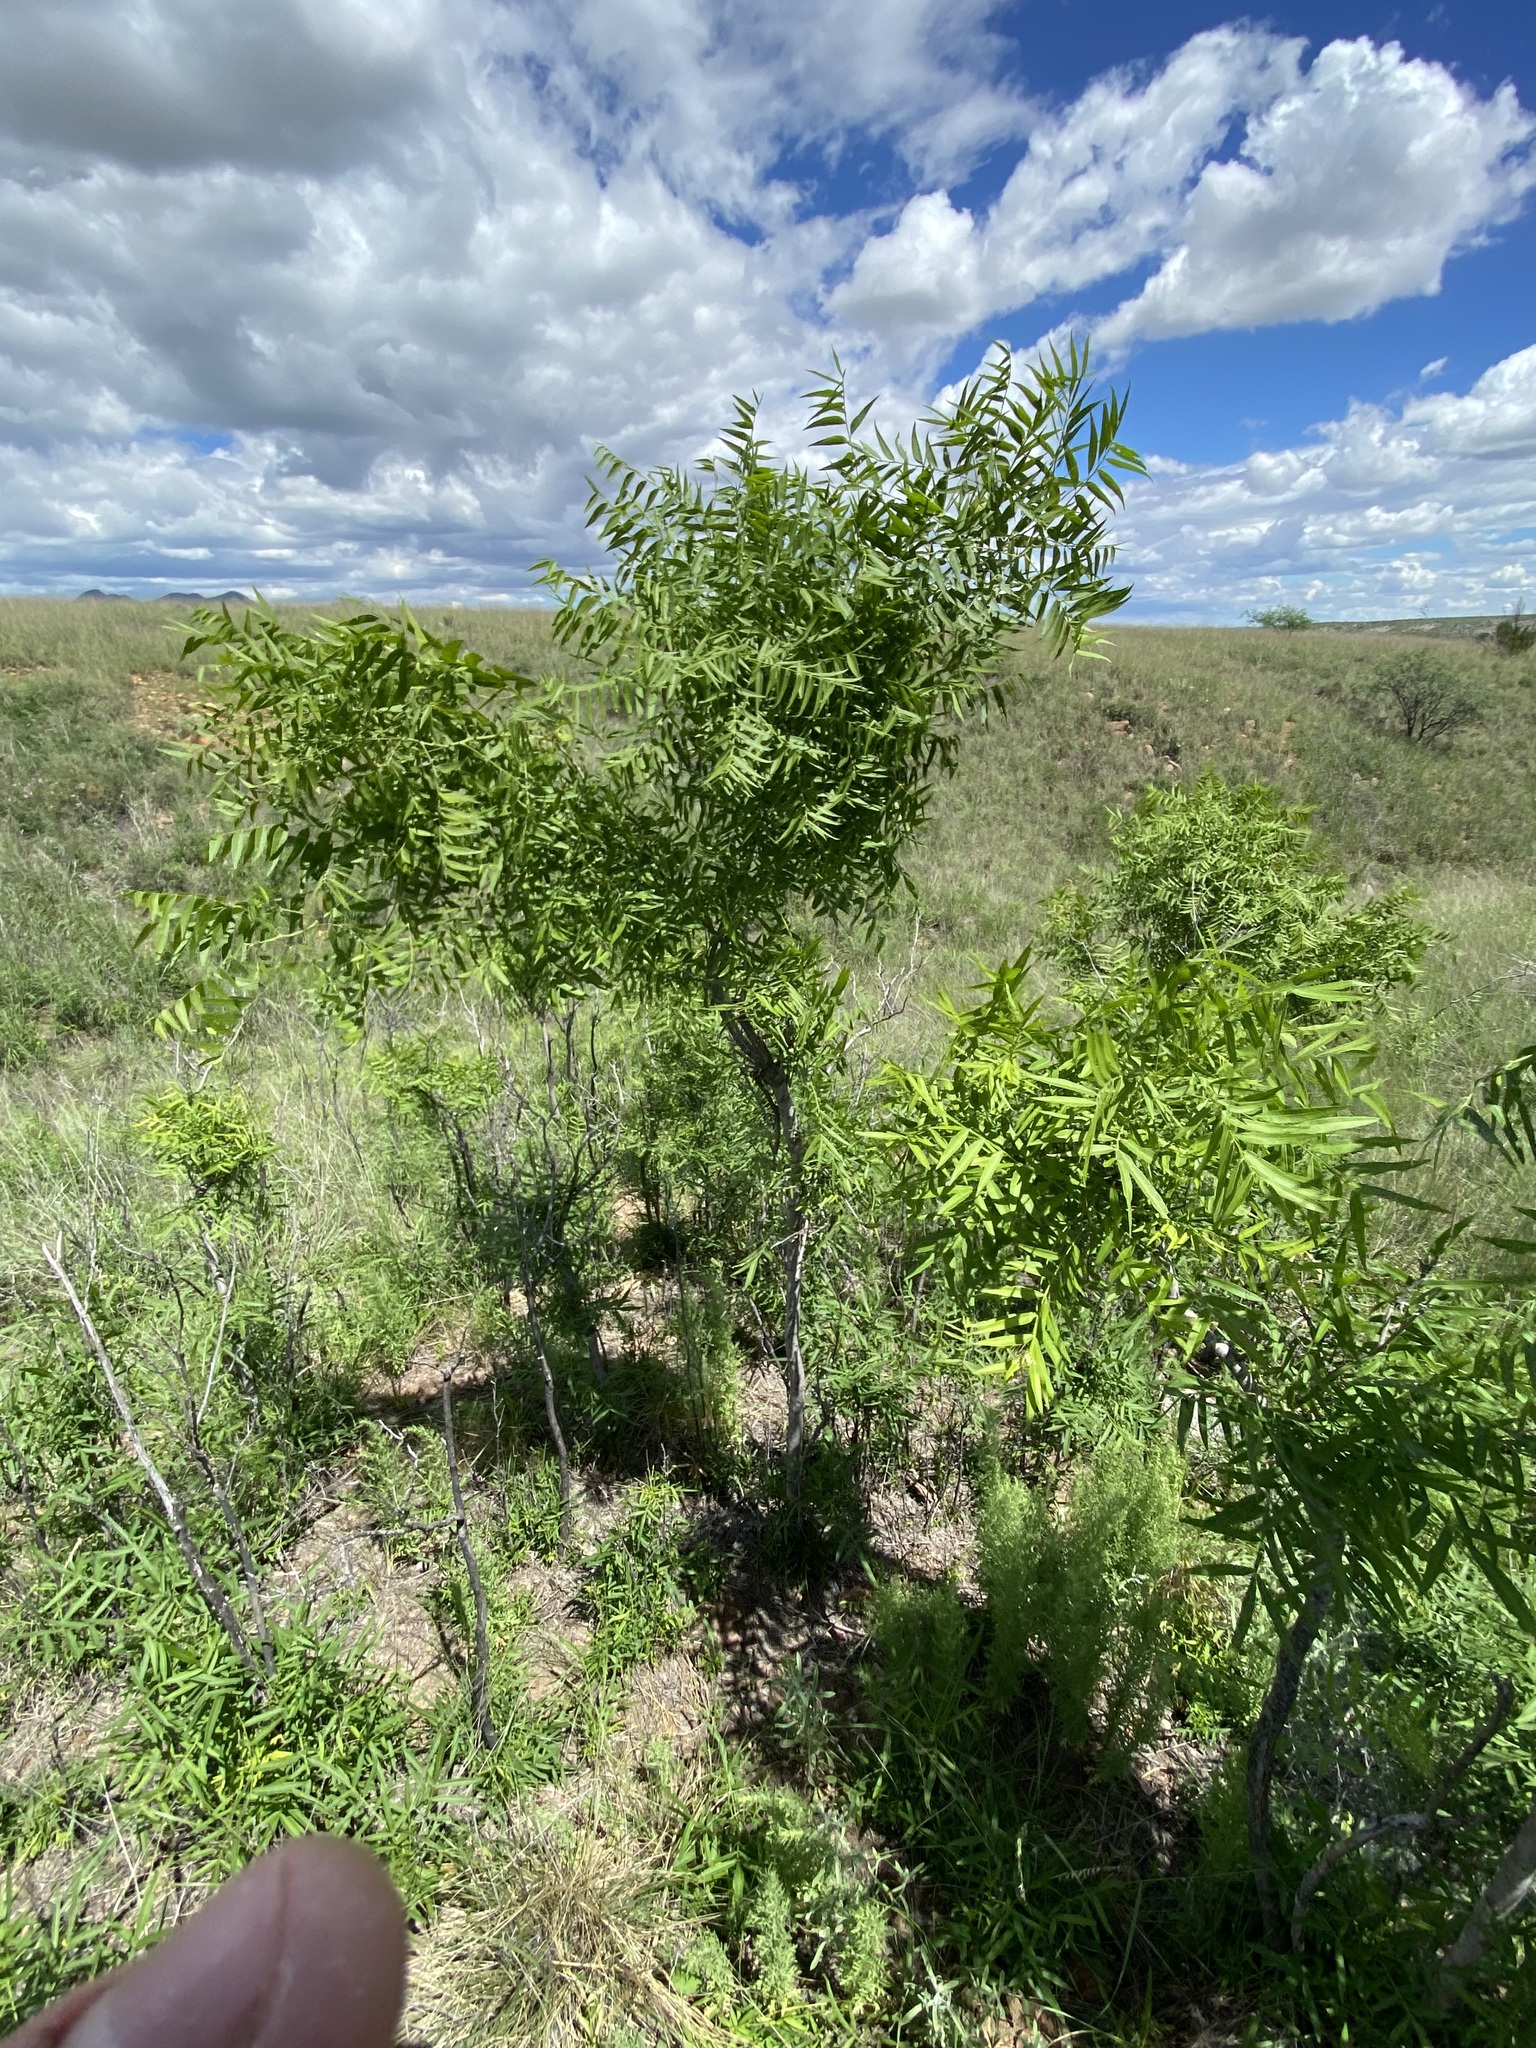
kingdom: Plantae
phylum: Tracheophyta
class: Magnoliopsida
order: Sapindales
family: Sapindaceae
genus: Sapindus
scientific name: Sapindus drummondii
